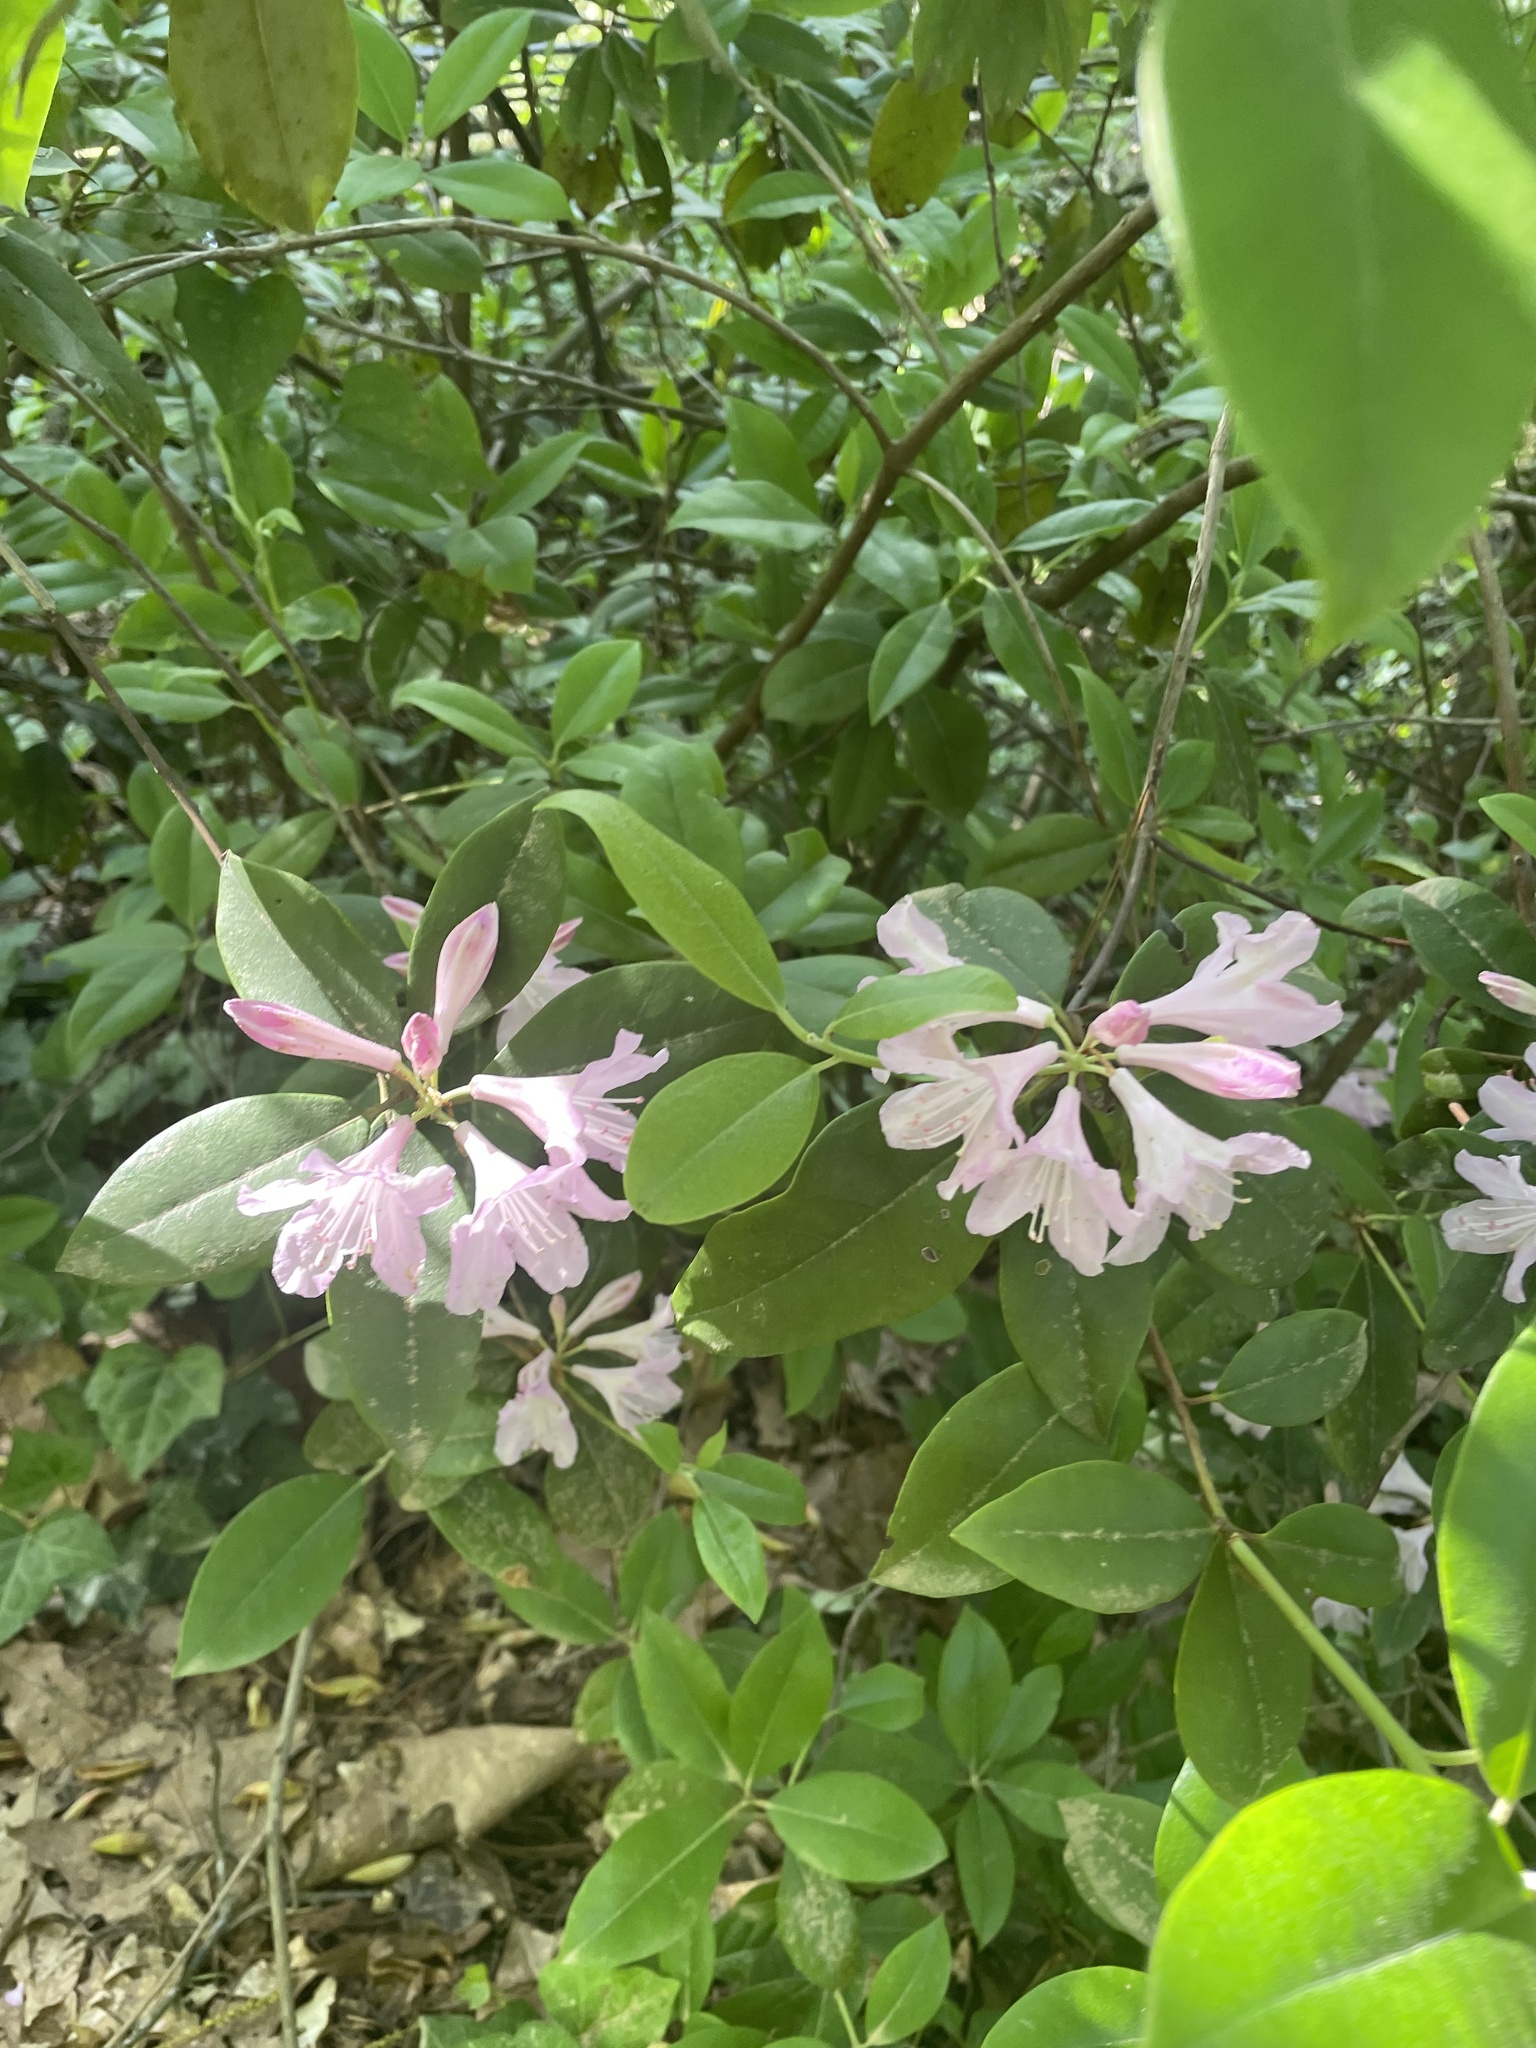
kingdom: Plantae
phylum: Tracheophyta
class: Magnoliopsida
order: Ericales
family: Ericaceae
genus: Rhododendron
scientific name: Rhododendron minus
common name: Piedmont rhododendron
